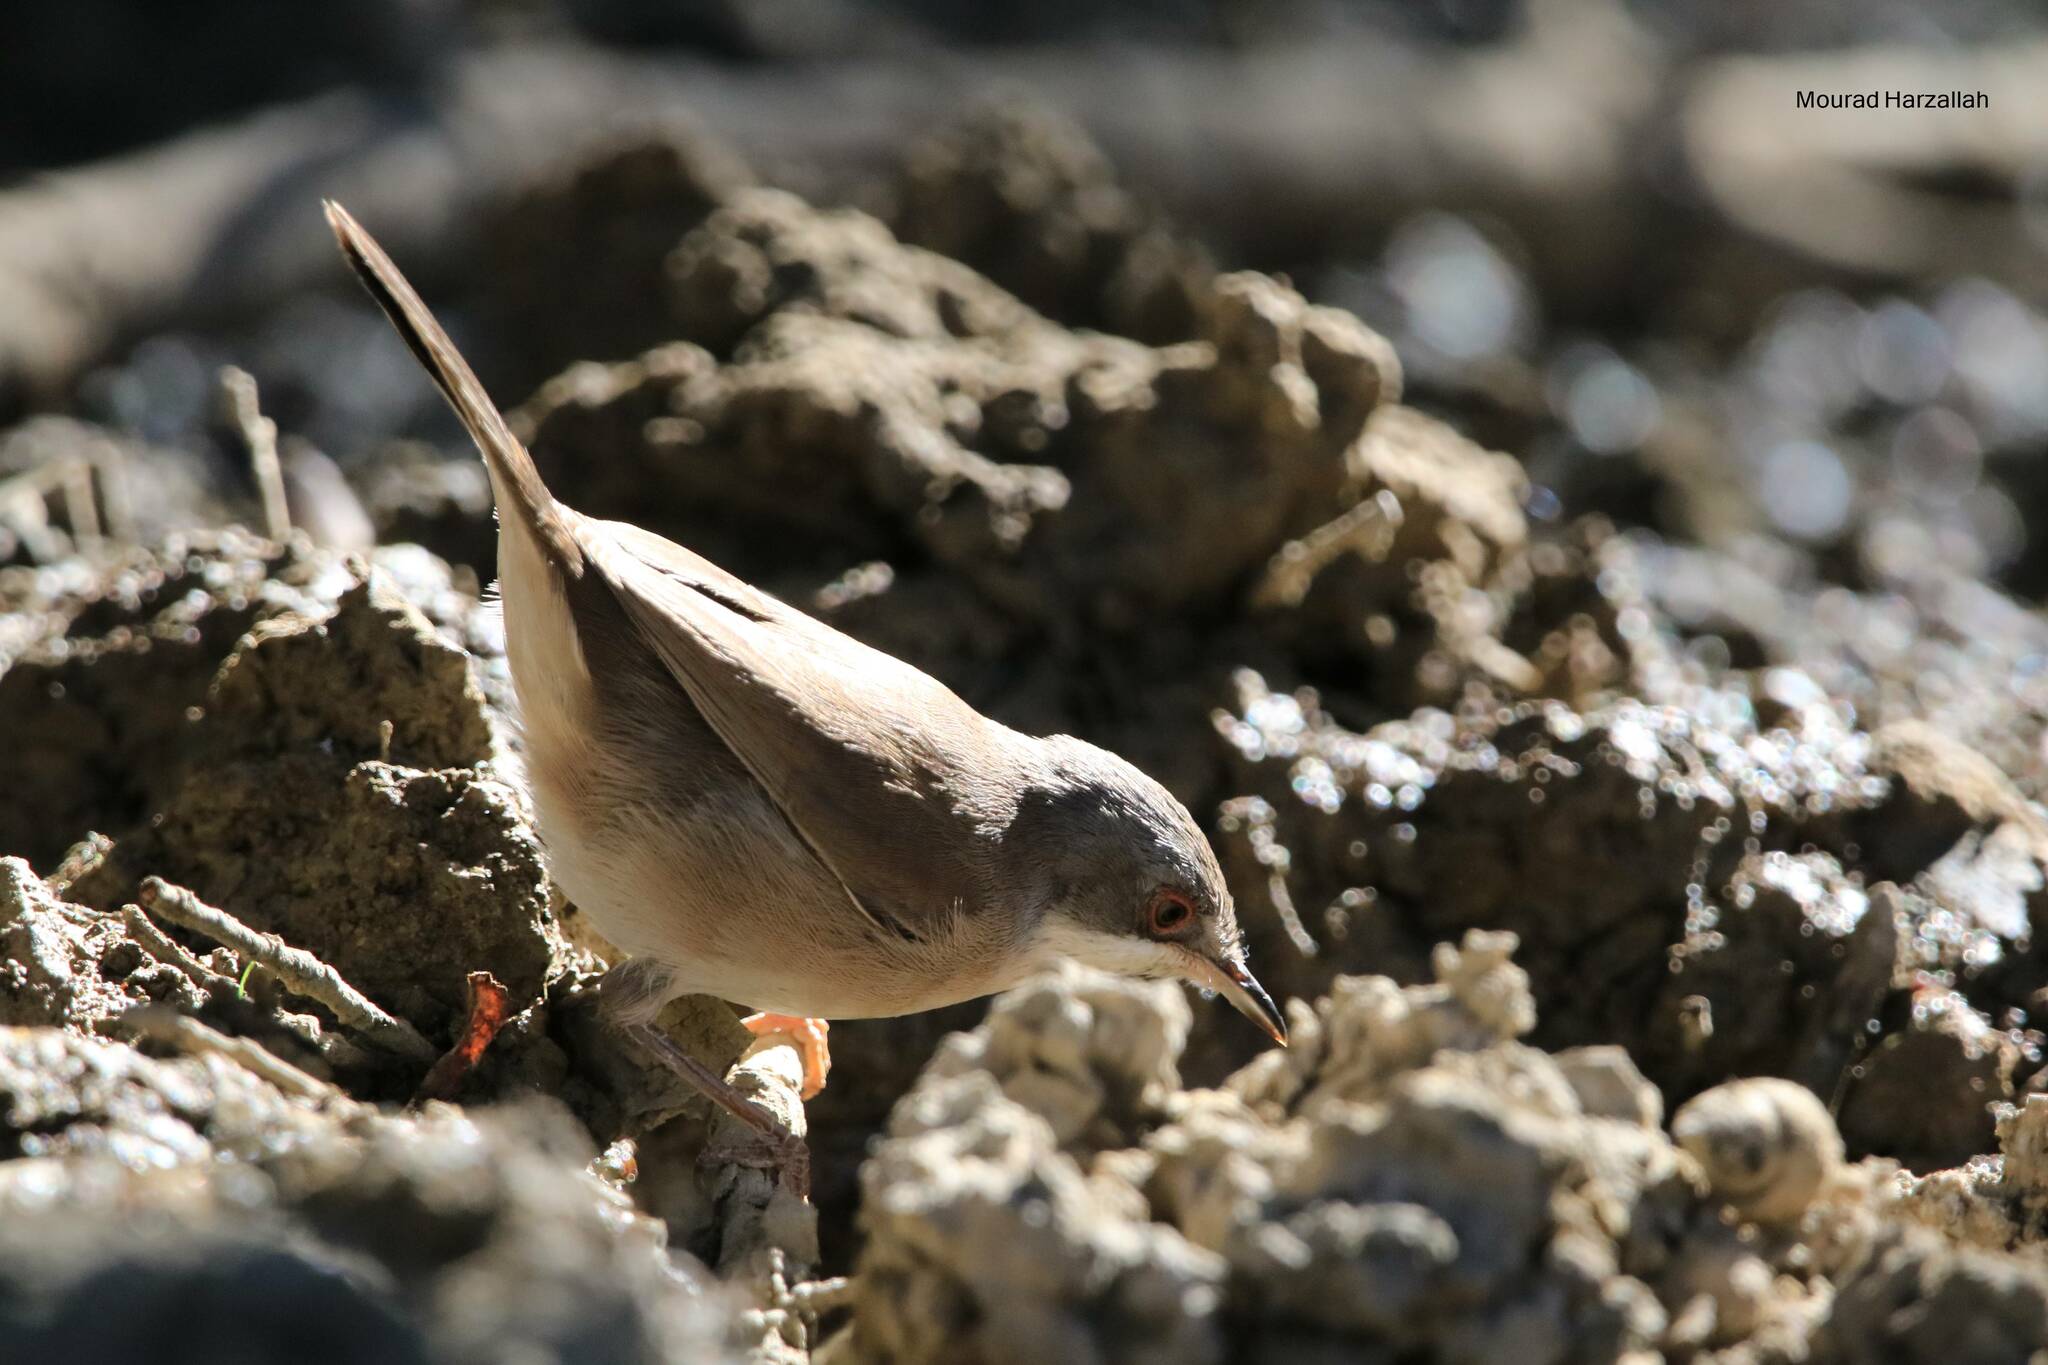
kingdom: Animalia
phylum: Chordata
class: Aves
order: Passeriformes
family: Sylviidae
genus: Curruca
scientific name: Curruca melanocephala
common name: Sardinian warbler
